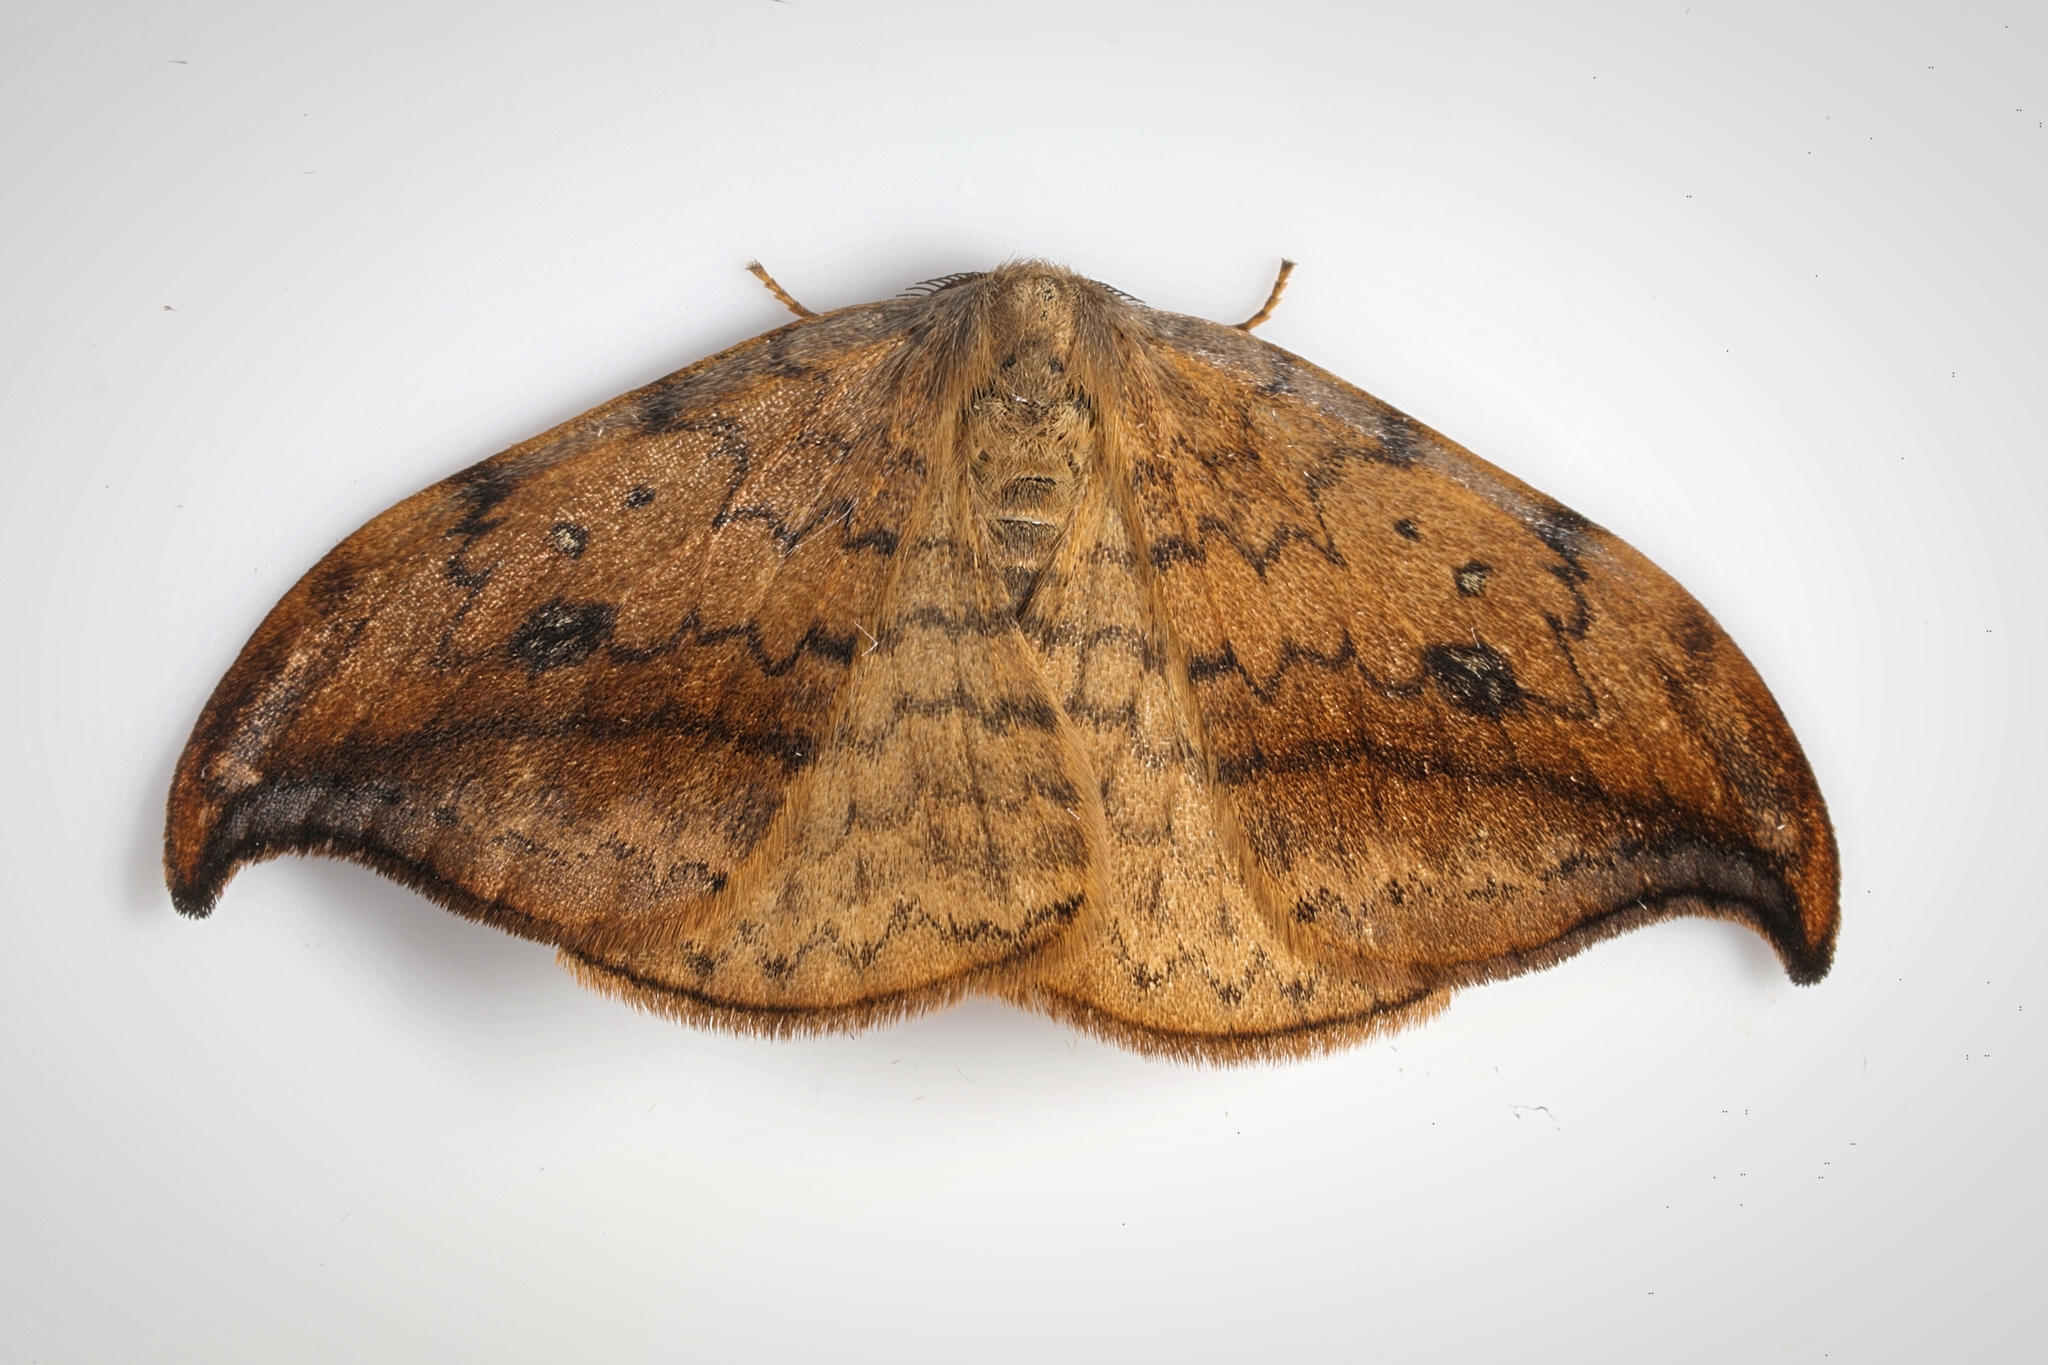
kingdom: Animalia
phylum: Arthropoda
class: Insecta
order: Lepidoptera
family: Drepanidae
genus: Drepana
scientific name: Drepana falcataria
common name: Pebble hook-tip
